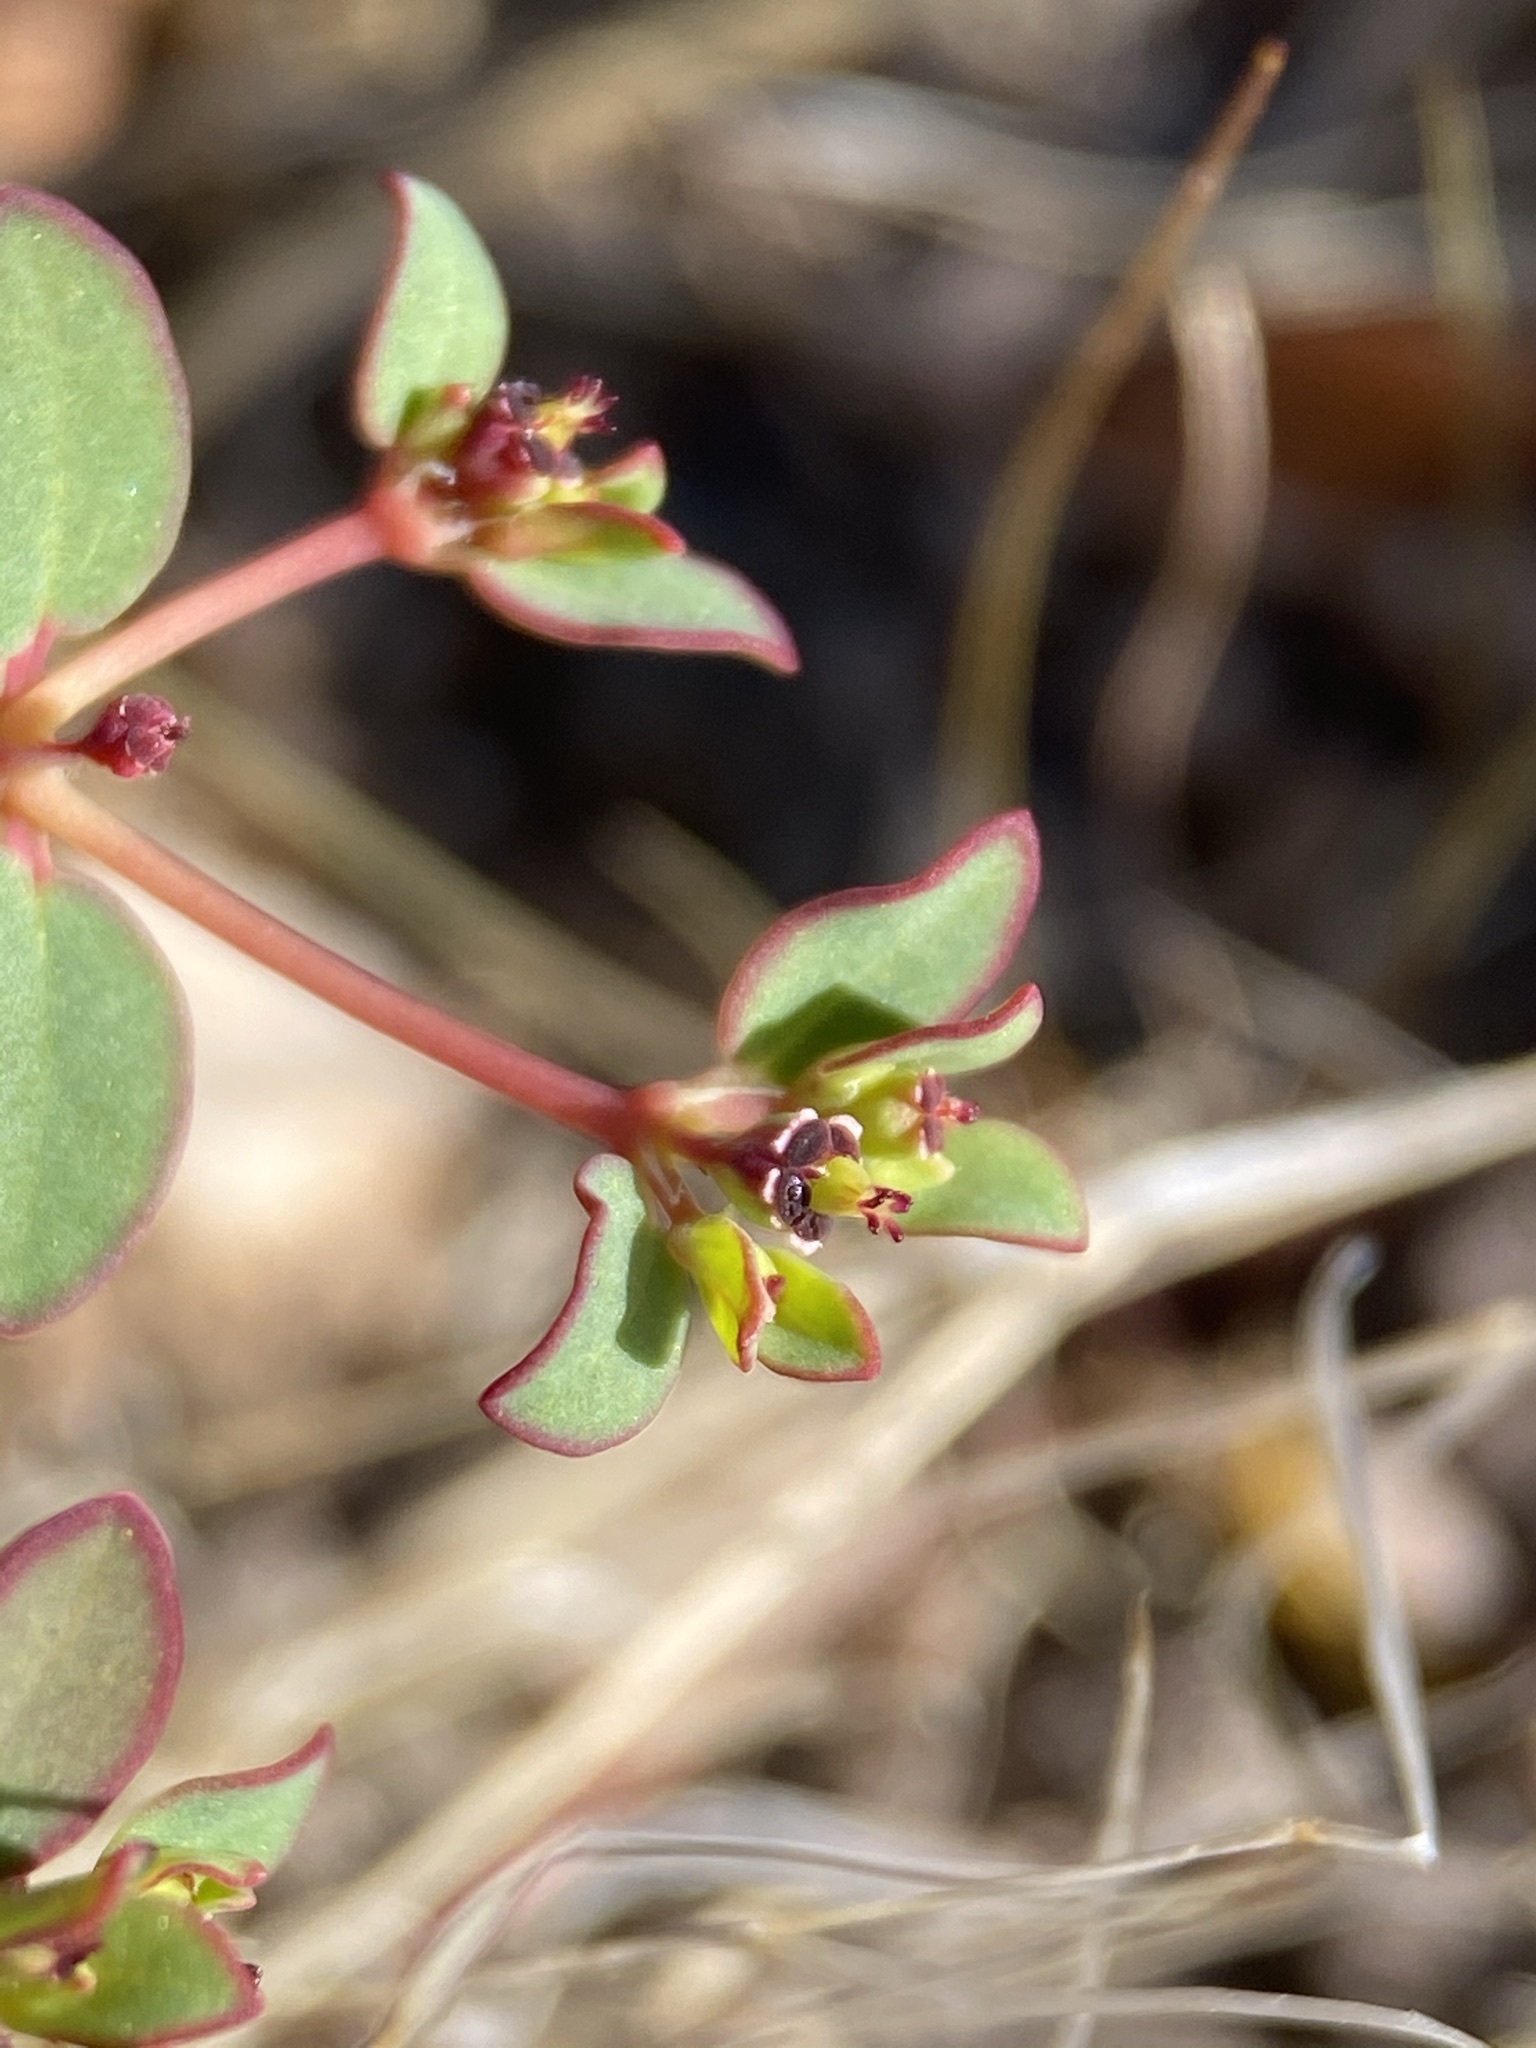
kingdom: Plantae
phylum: Tracheophyta
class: Magnoliopsida
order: Malpighiales
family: Euphorbiaceae
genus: Euphorbia
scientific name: Euphorbia polycarpa
